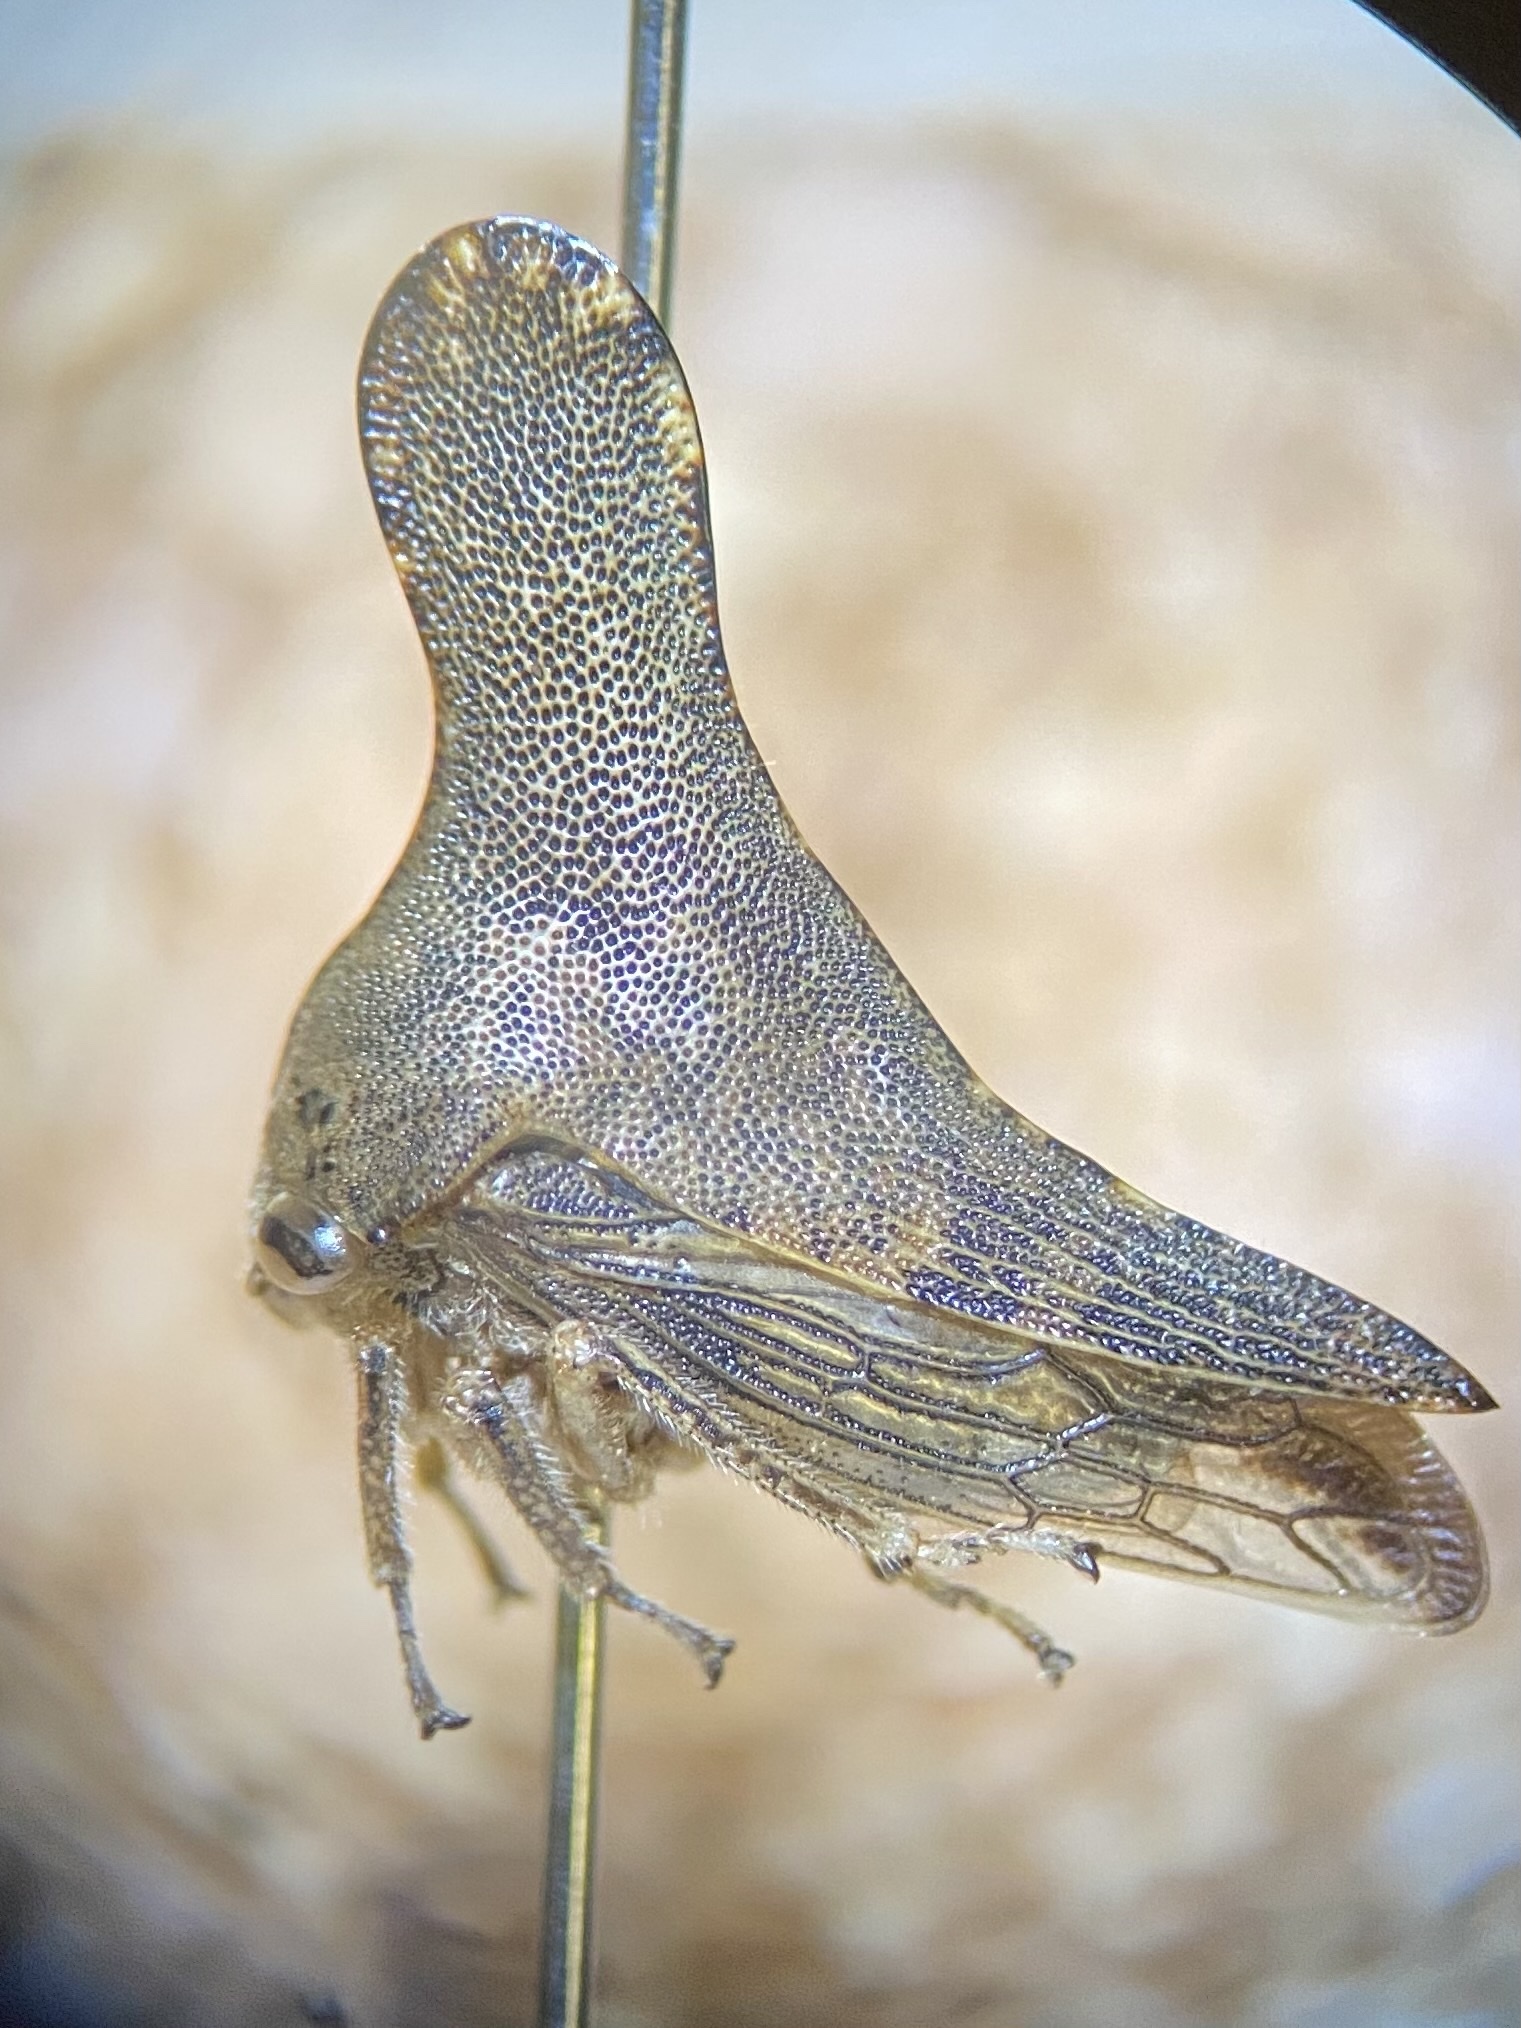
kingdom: Animalia
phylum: Arthropoda
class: Insecta
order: Hemiptera
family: Membracidae
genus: Glossonotus
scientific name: Glossonotus acuminata
